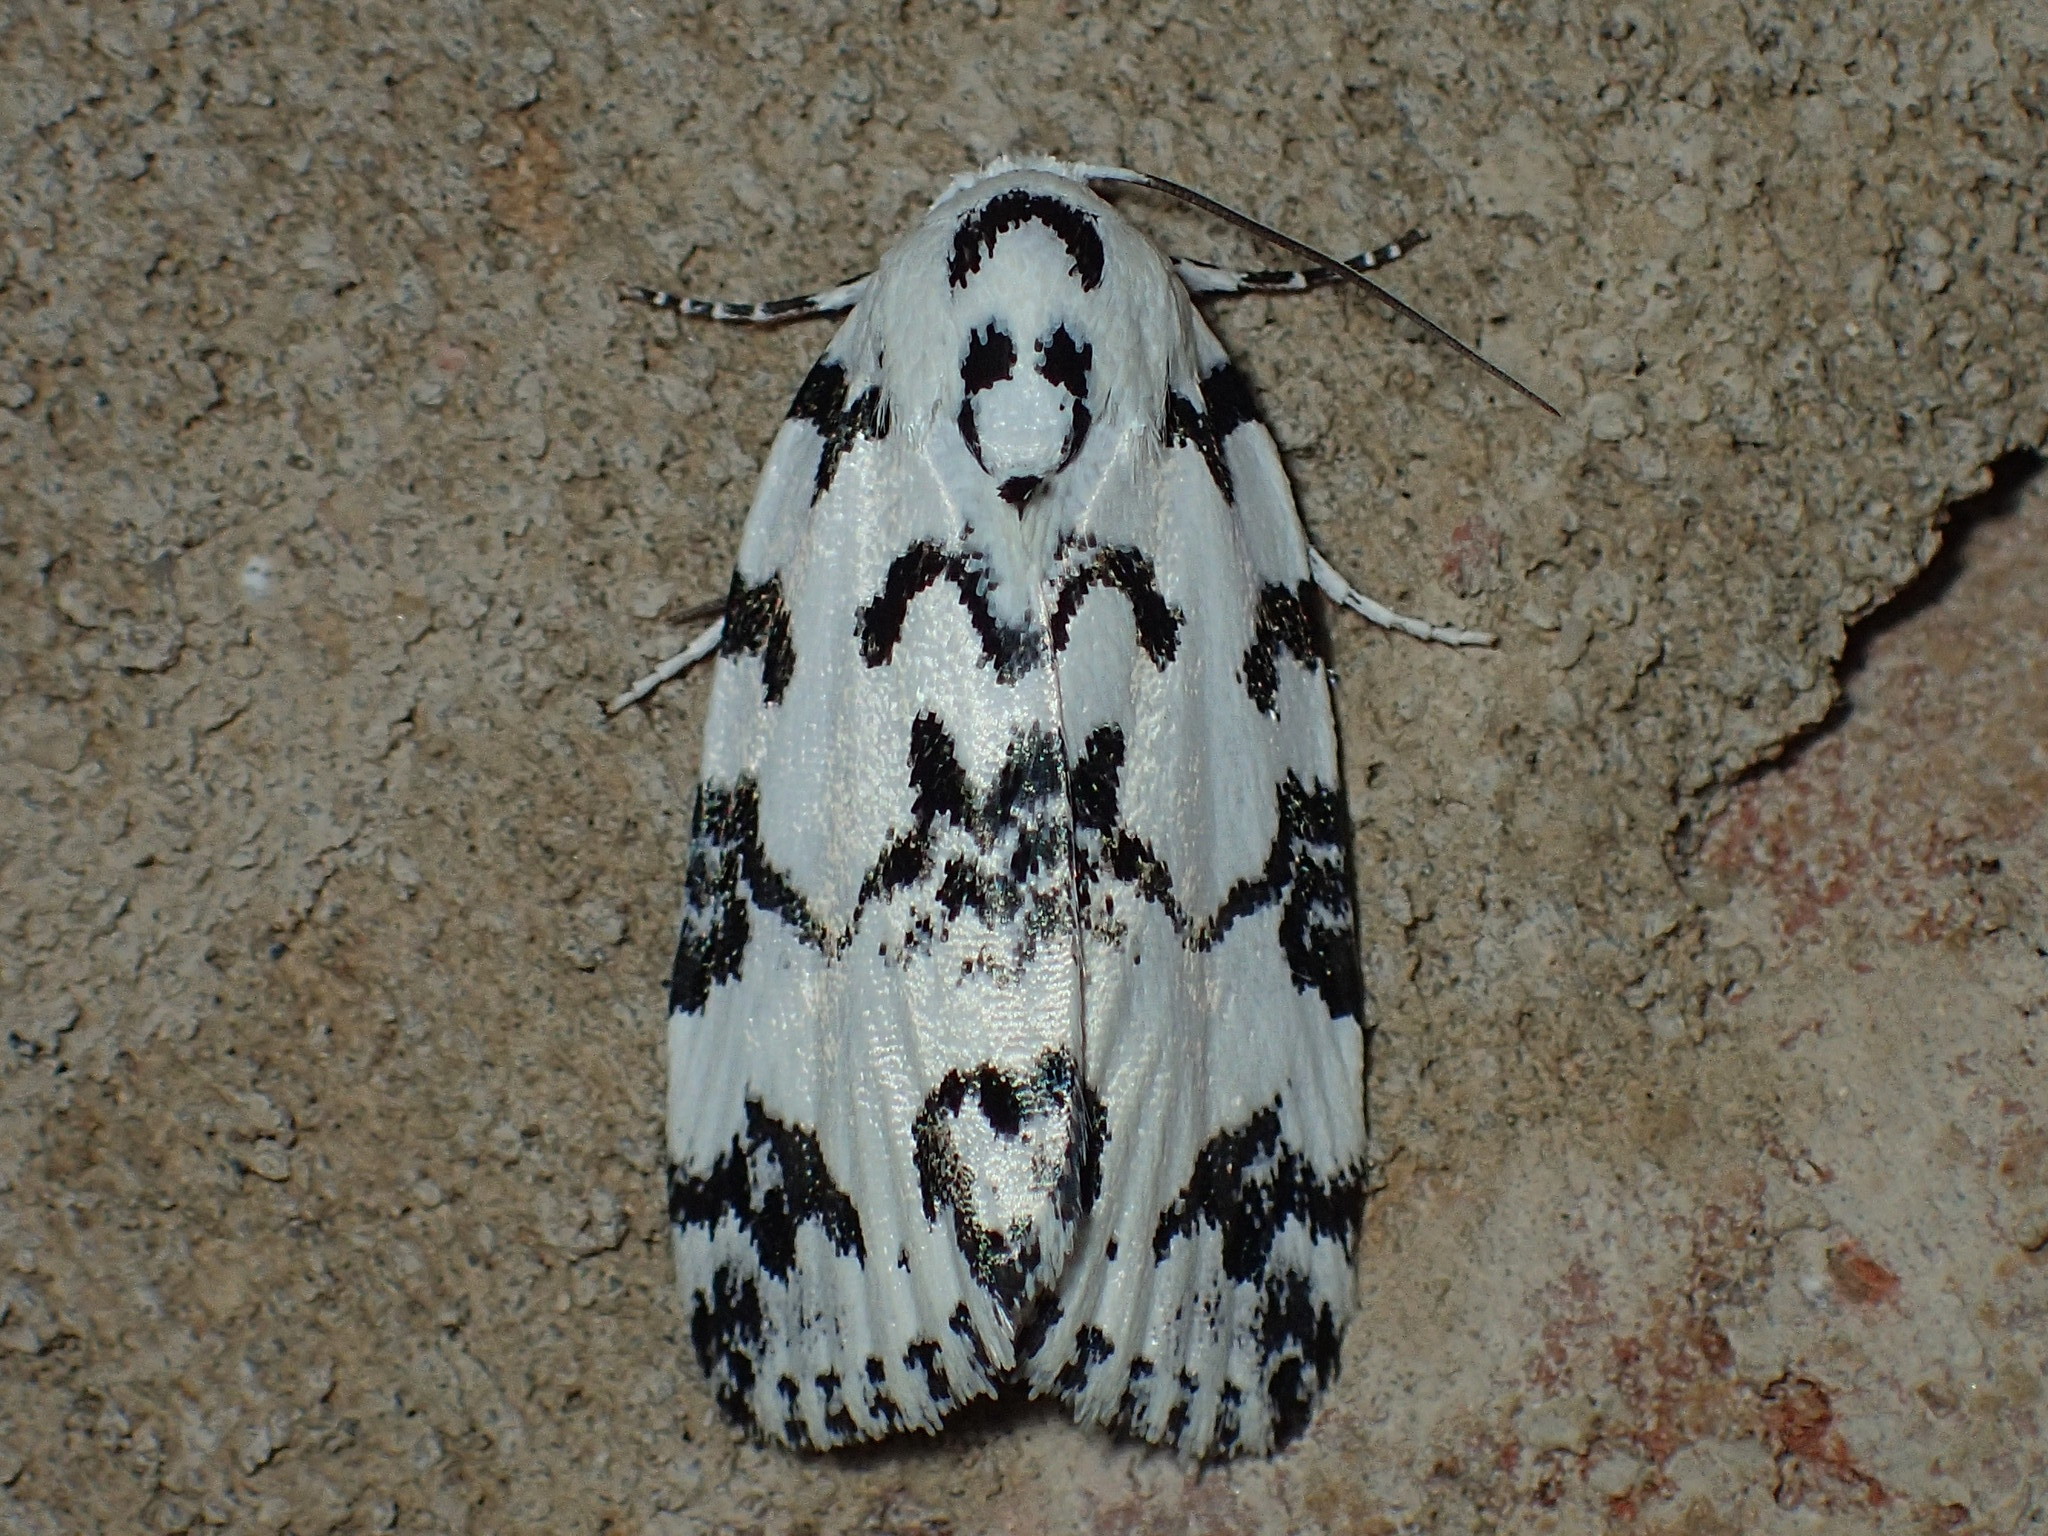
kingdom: Animalia
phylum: Arthropoda
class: Insecta
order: Lepidoptera
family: Noctuidae
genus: Polygrammate
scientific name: Polygrammate hebraeicum
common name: Hebrew moth
